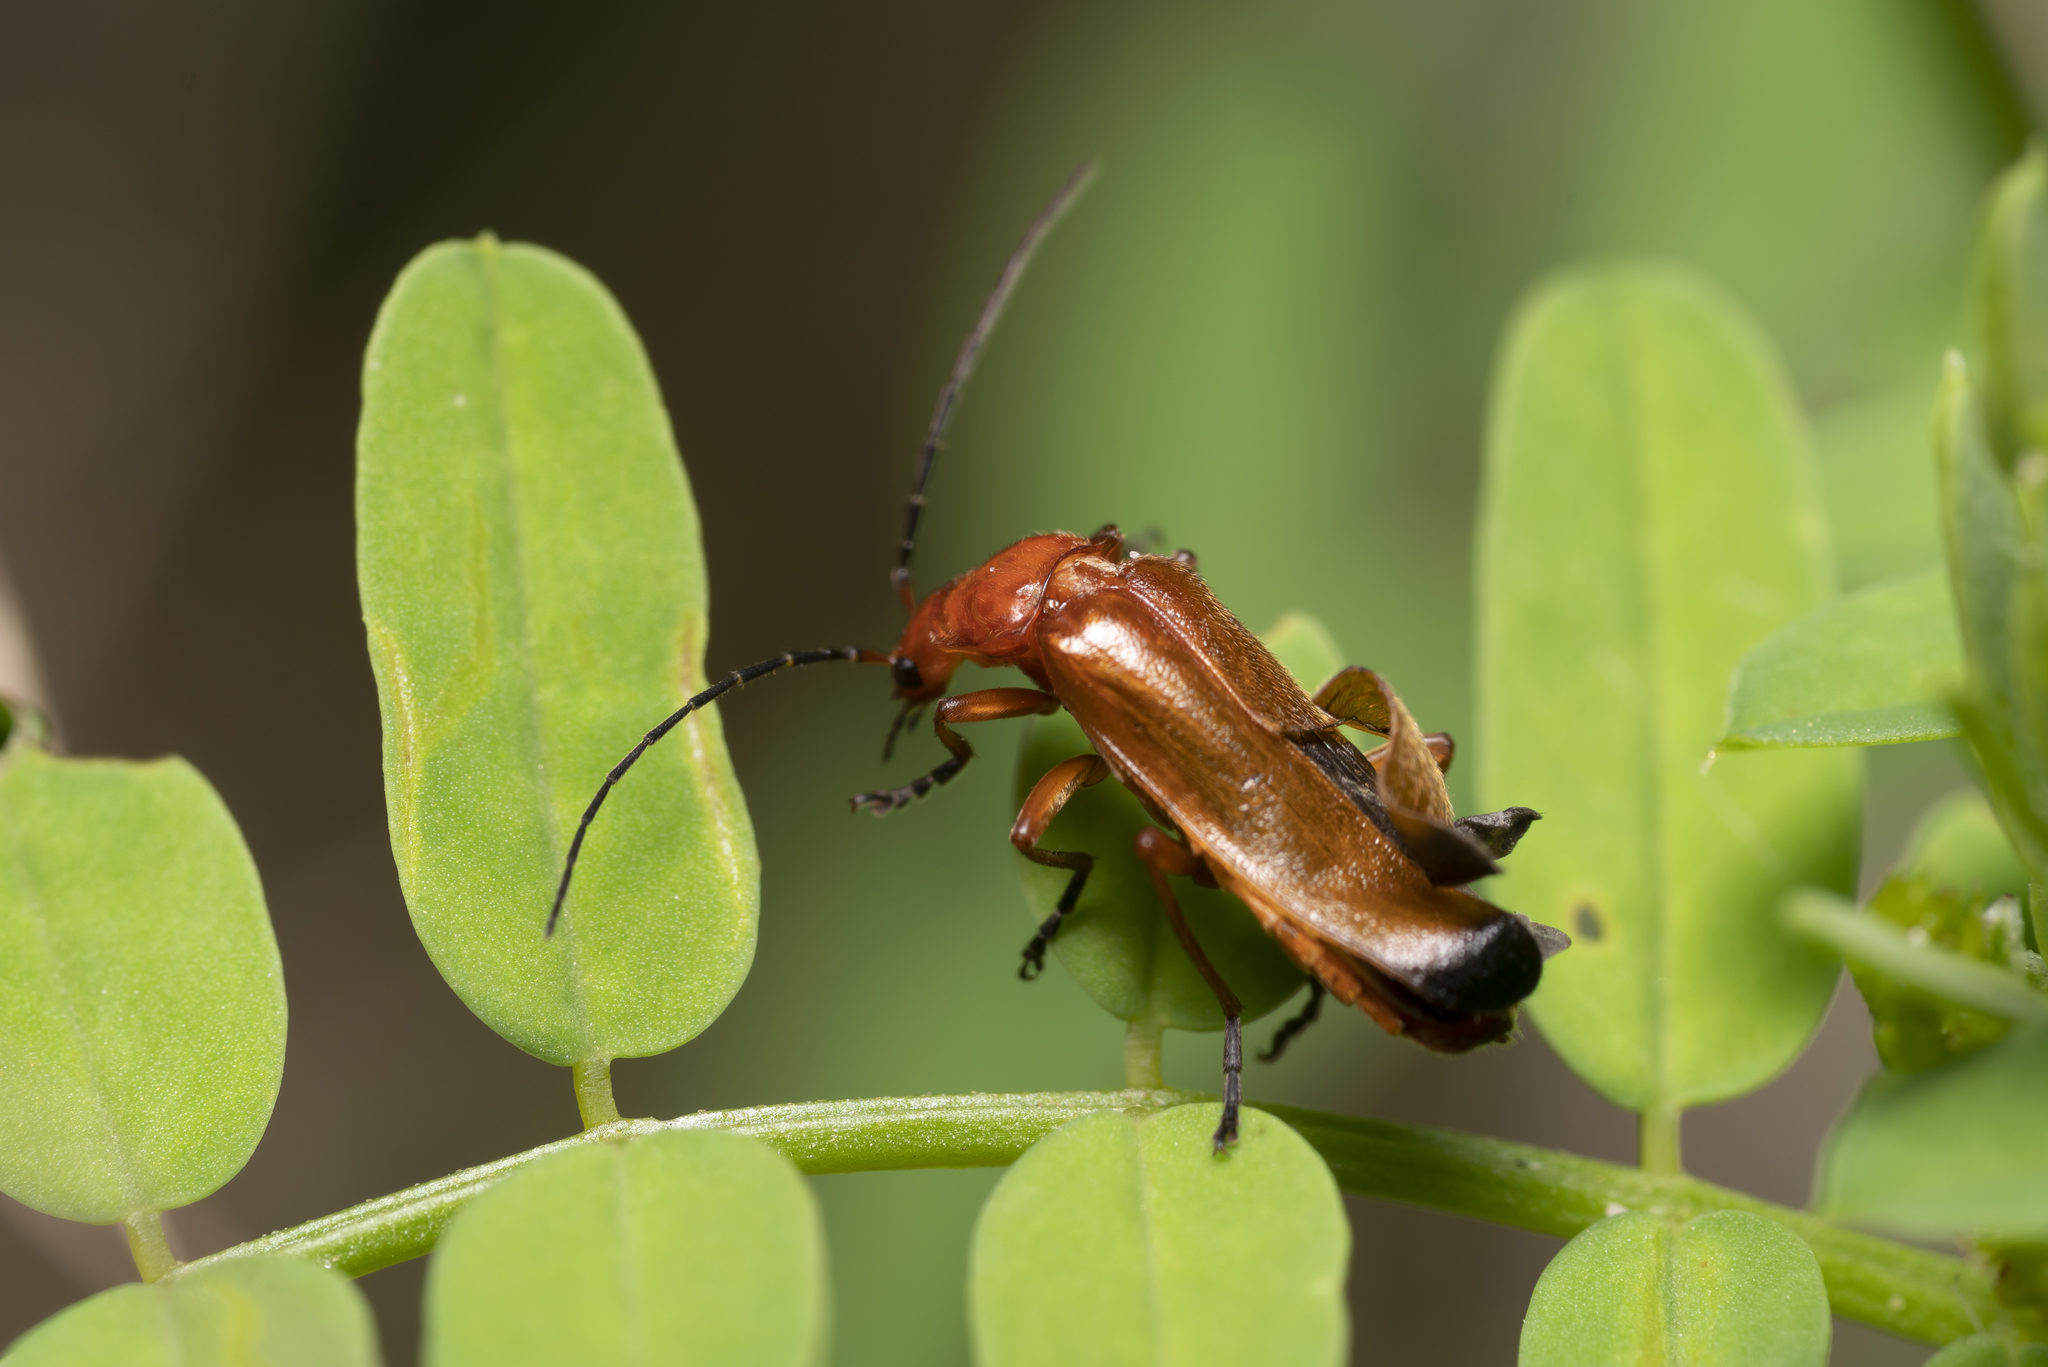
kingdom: Animalia
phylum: Arthropoda
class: Insecta
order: Coleoptera
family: Cantharidae
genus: Rhagonycha
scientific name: Rhagonycha fulva
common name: Common red soldier beetle
